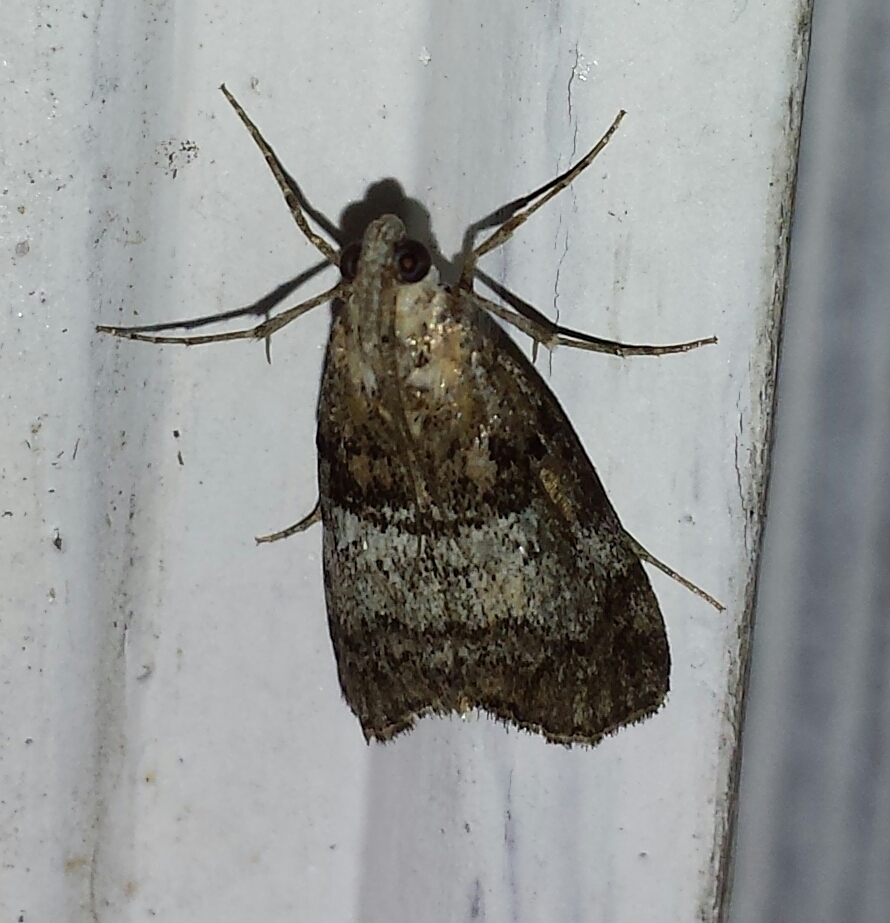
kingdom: Animalia
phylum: Arthropoda
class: Insecta
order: Lepidoptera
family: Pyralidae
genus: Pococera
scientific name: Pococera asperatella
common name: Maple webworm moth
